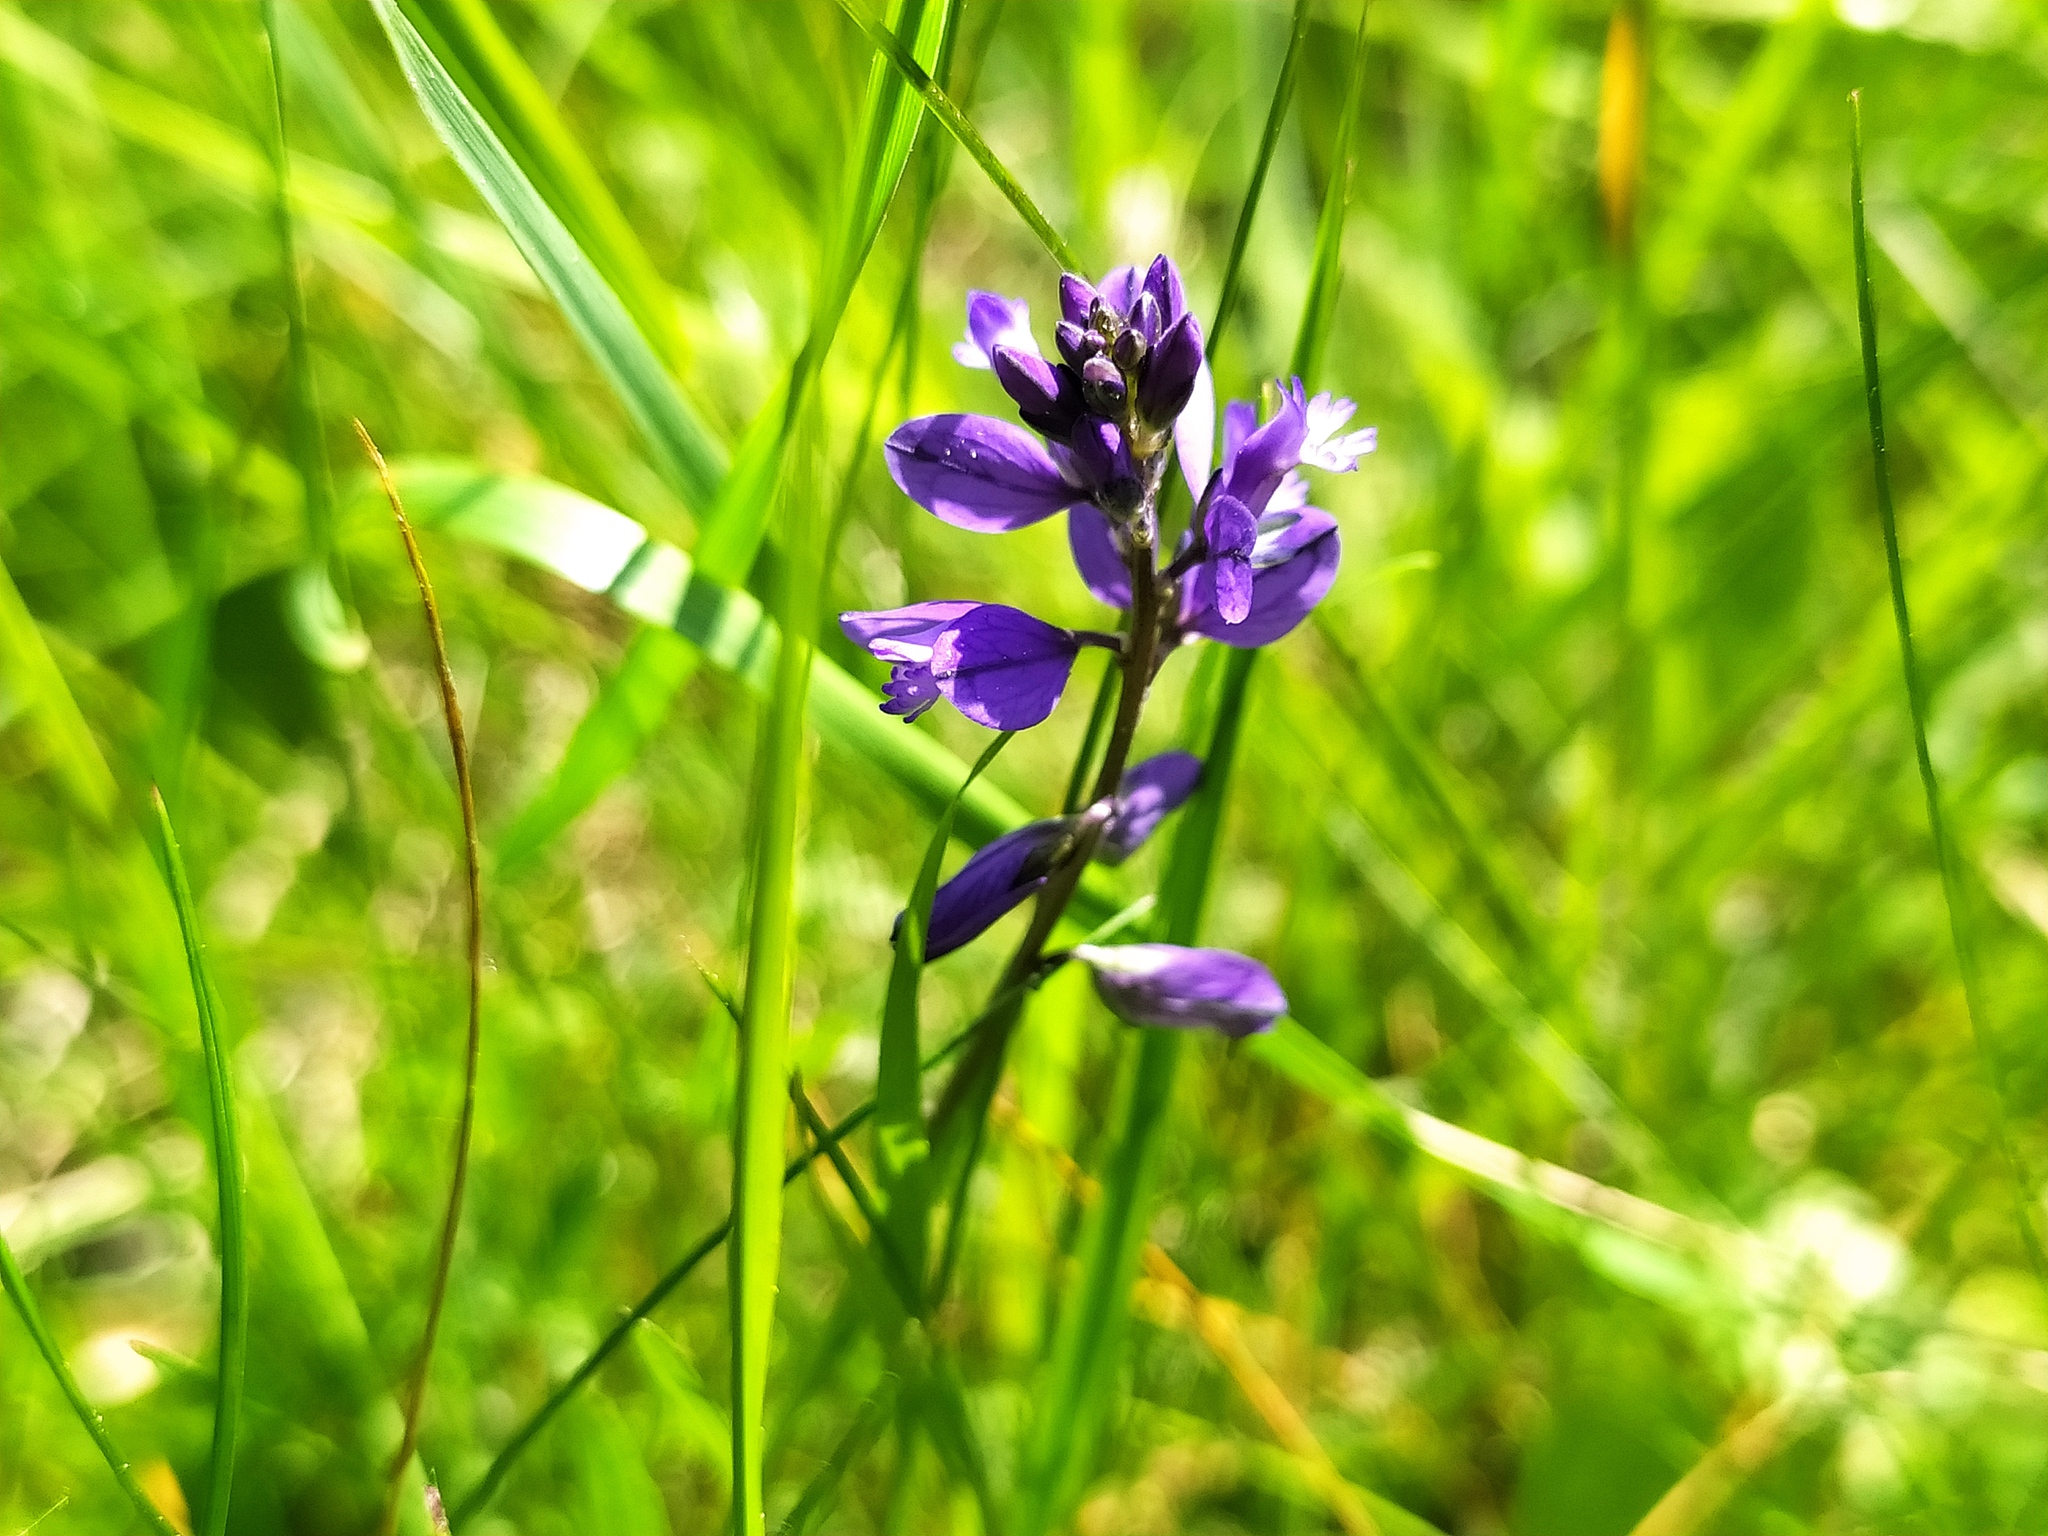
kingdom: Plantae
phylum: Tracheophyta
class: Magnoliopsida
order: Fabales
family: Polygalaceae
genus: Polygala
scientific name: Polygala vulgaris
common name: Common milkwort
